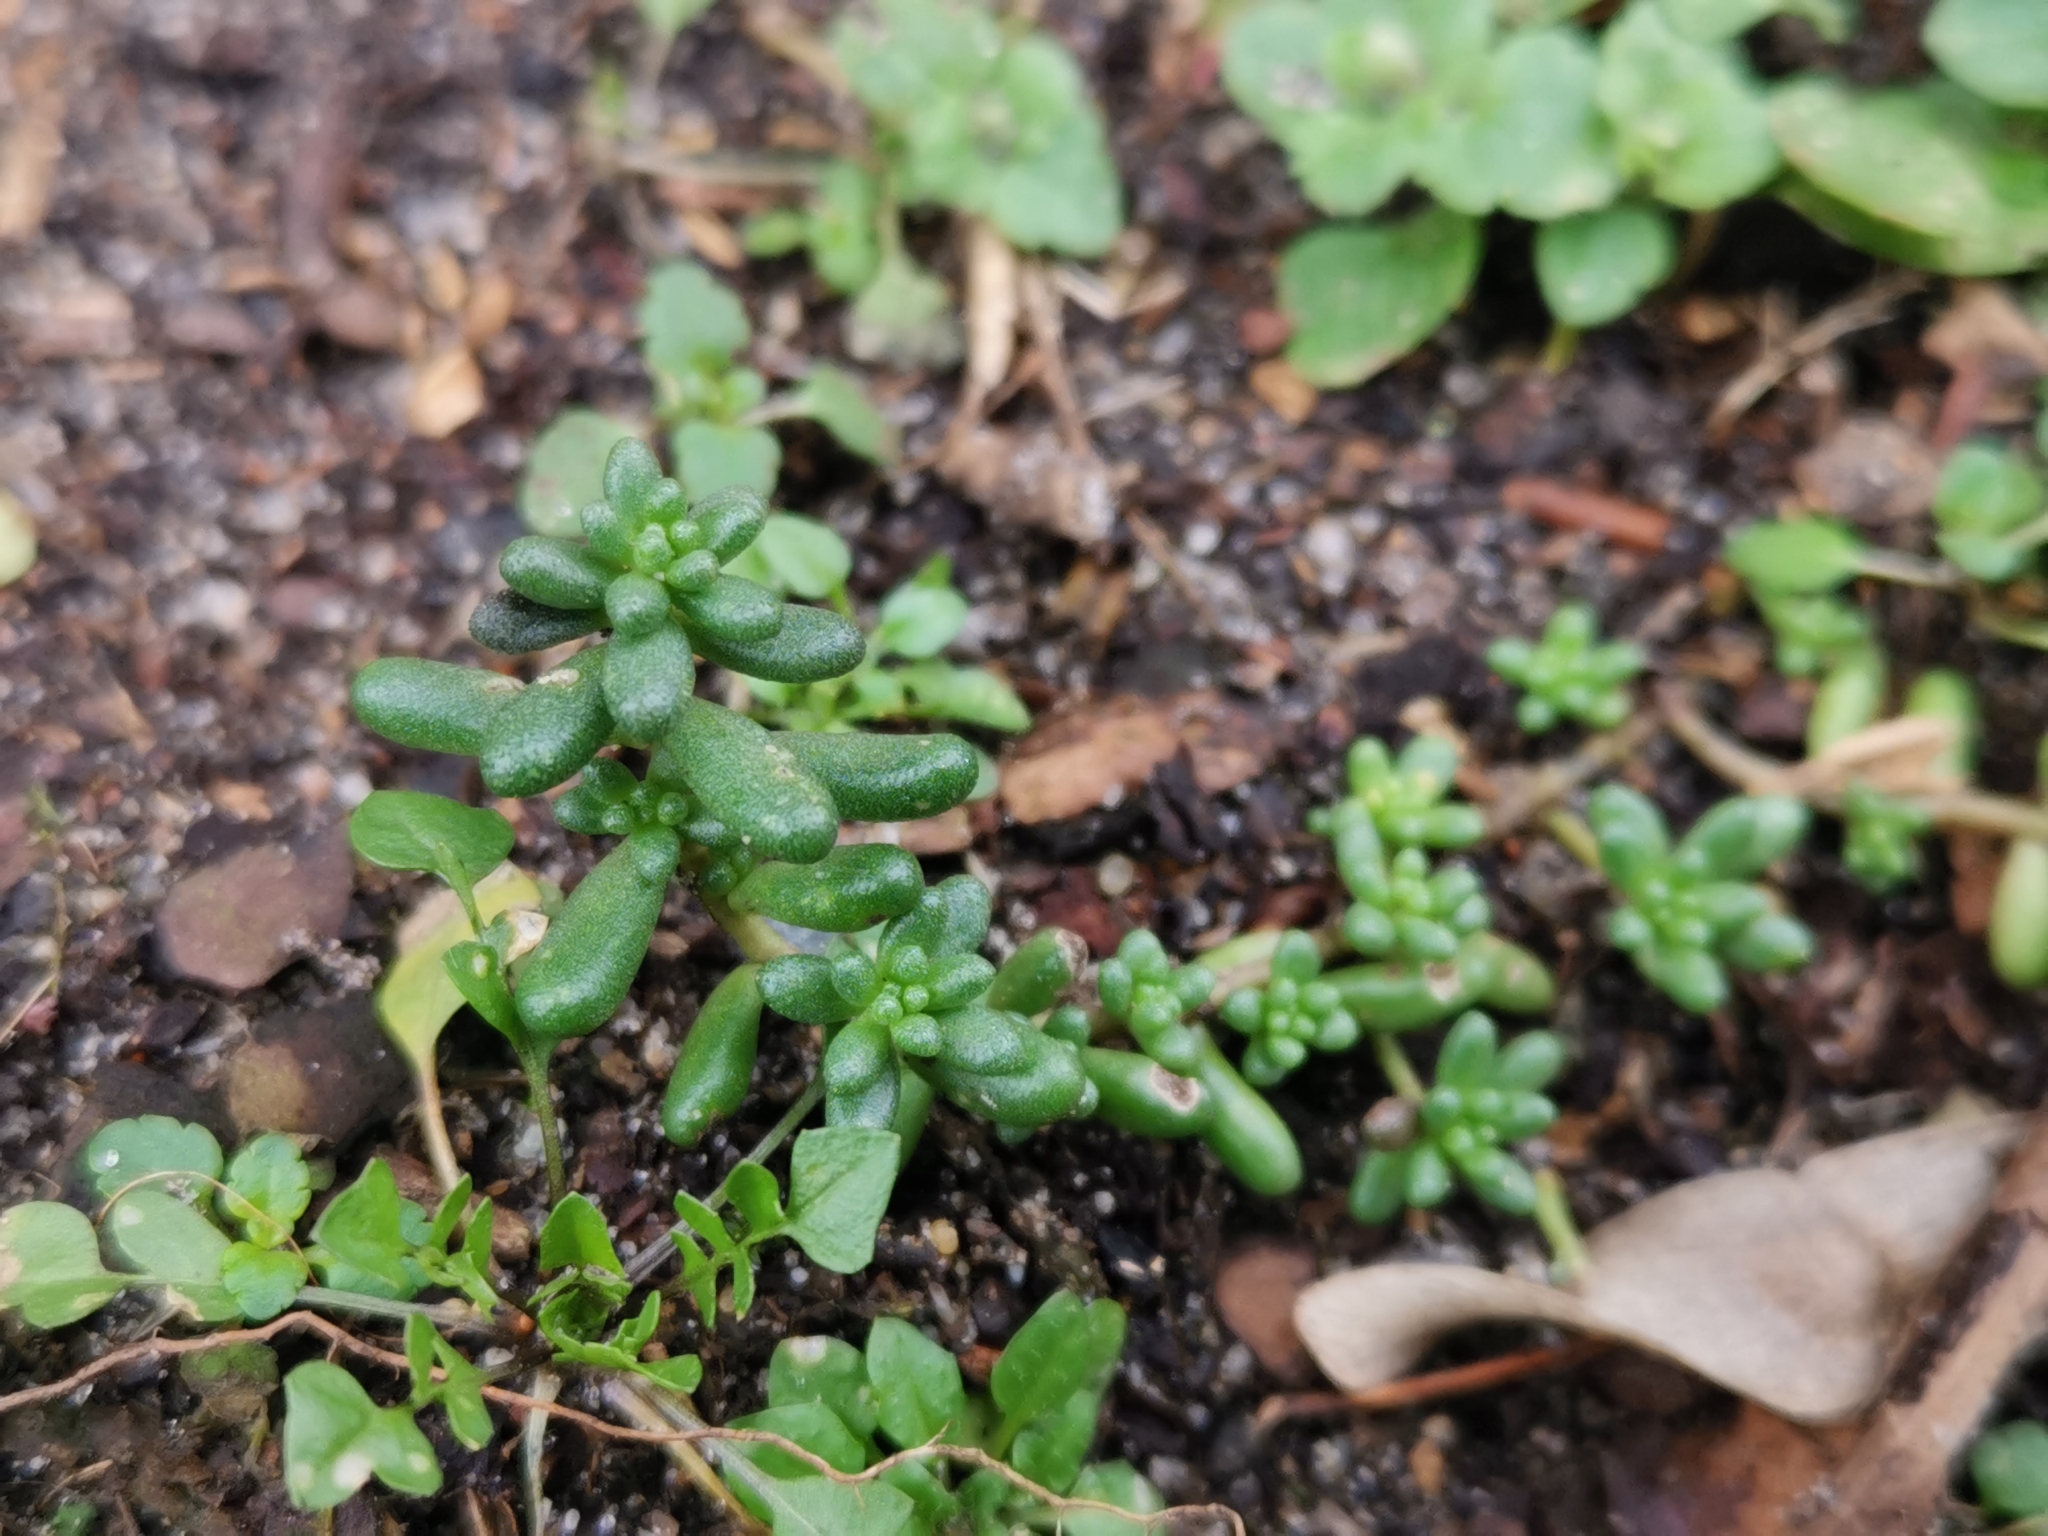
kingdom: Plantae
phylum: Tracheophyta
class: Magnoliopsida
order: Saxifragales
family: Crassulaceae
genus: Sedum
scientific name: Sedum album
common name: White stonecrop
